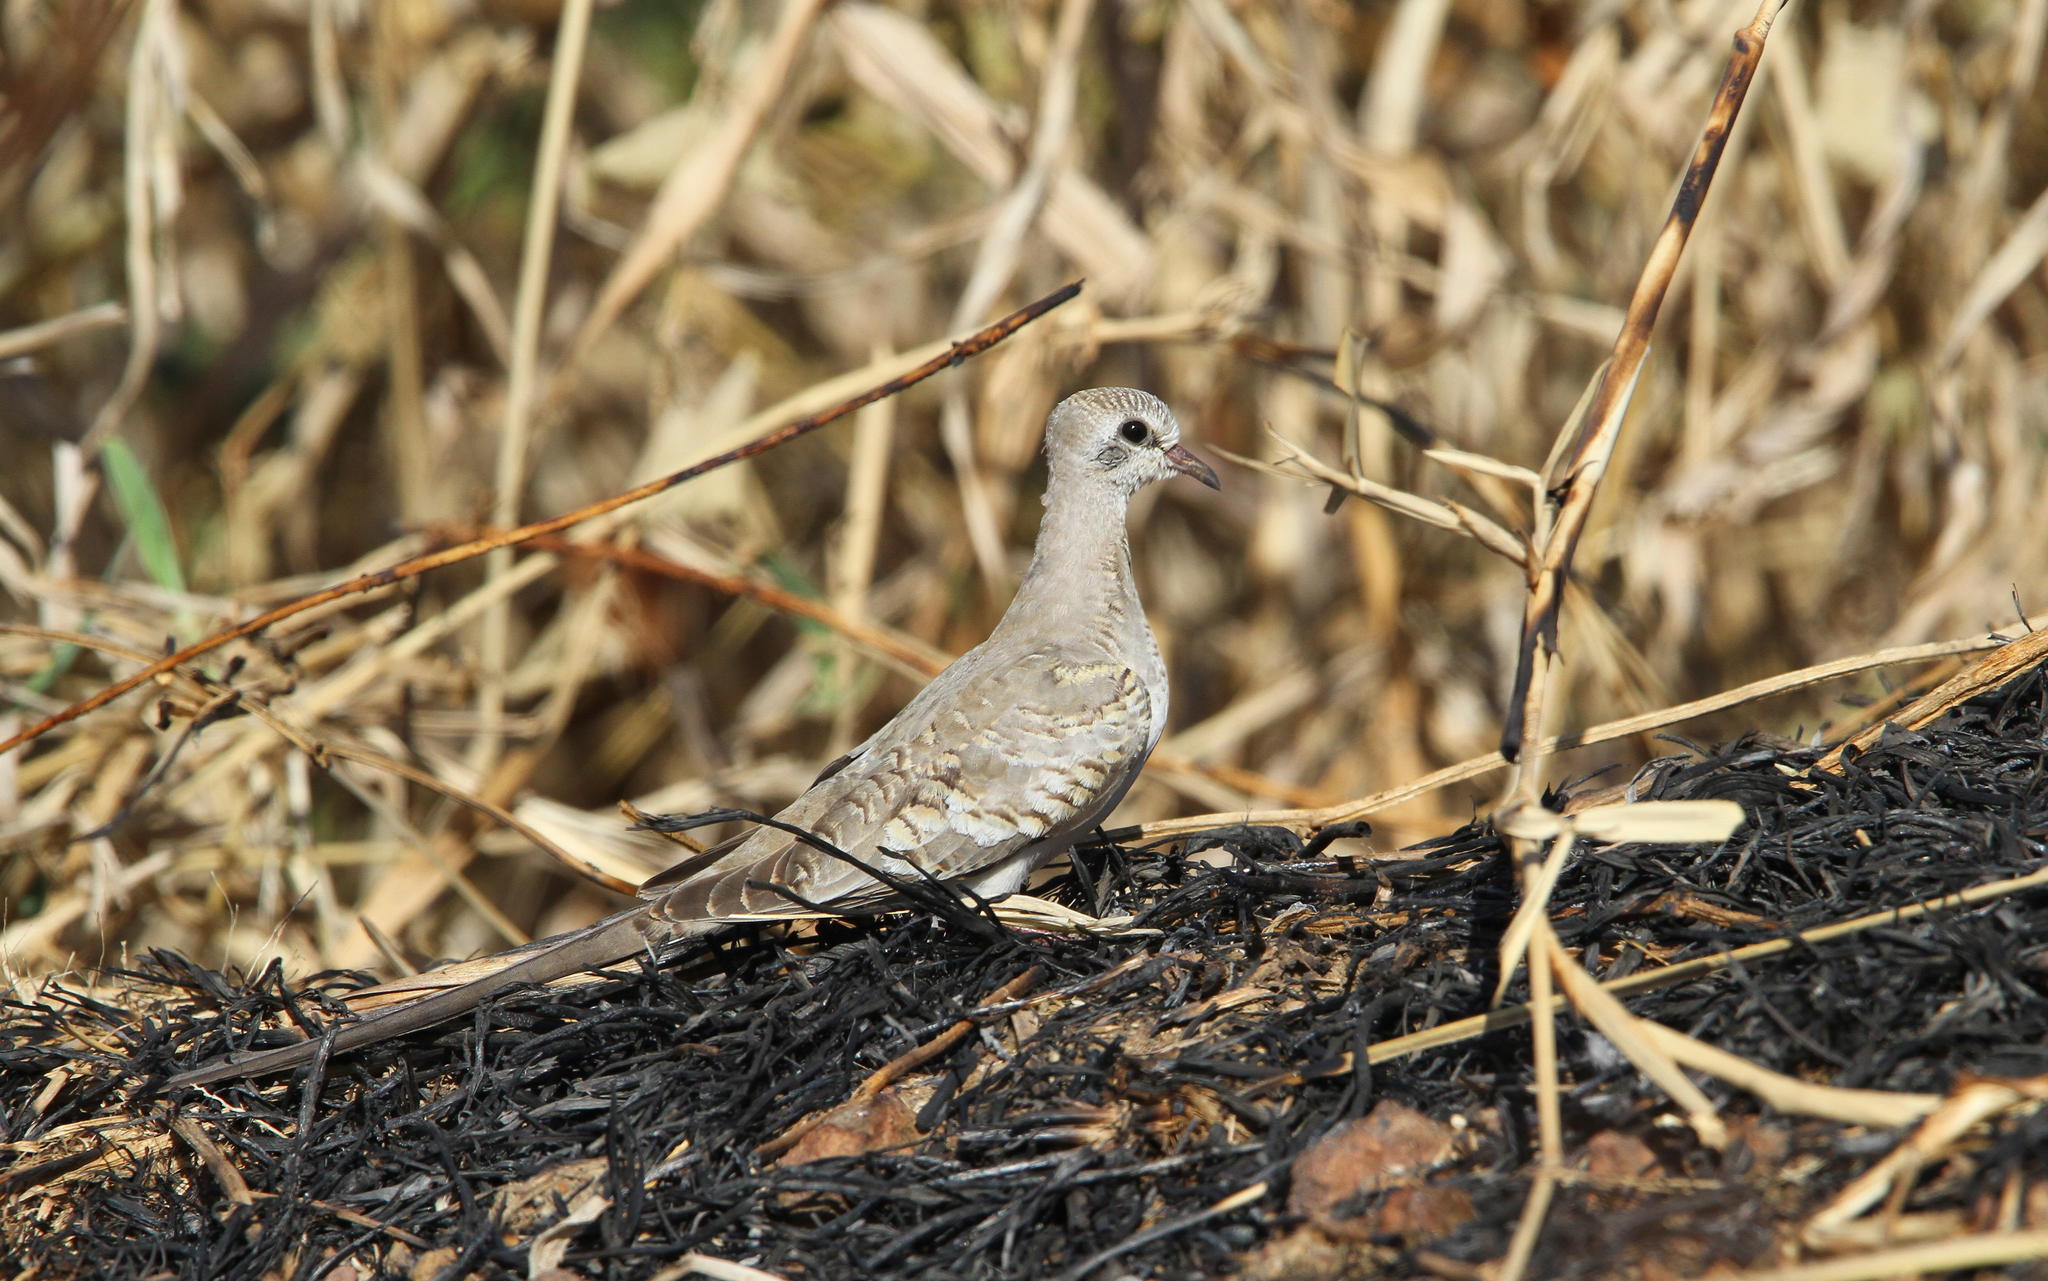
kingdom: Animalia
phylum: Chordata
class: Aves
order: Columbiformes
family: Columbidae
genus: Oena
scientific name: Oena capensis
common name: Namaqua dove
